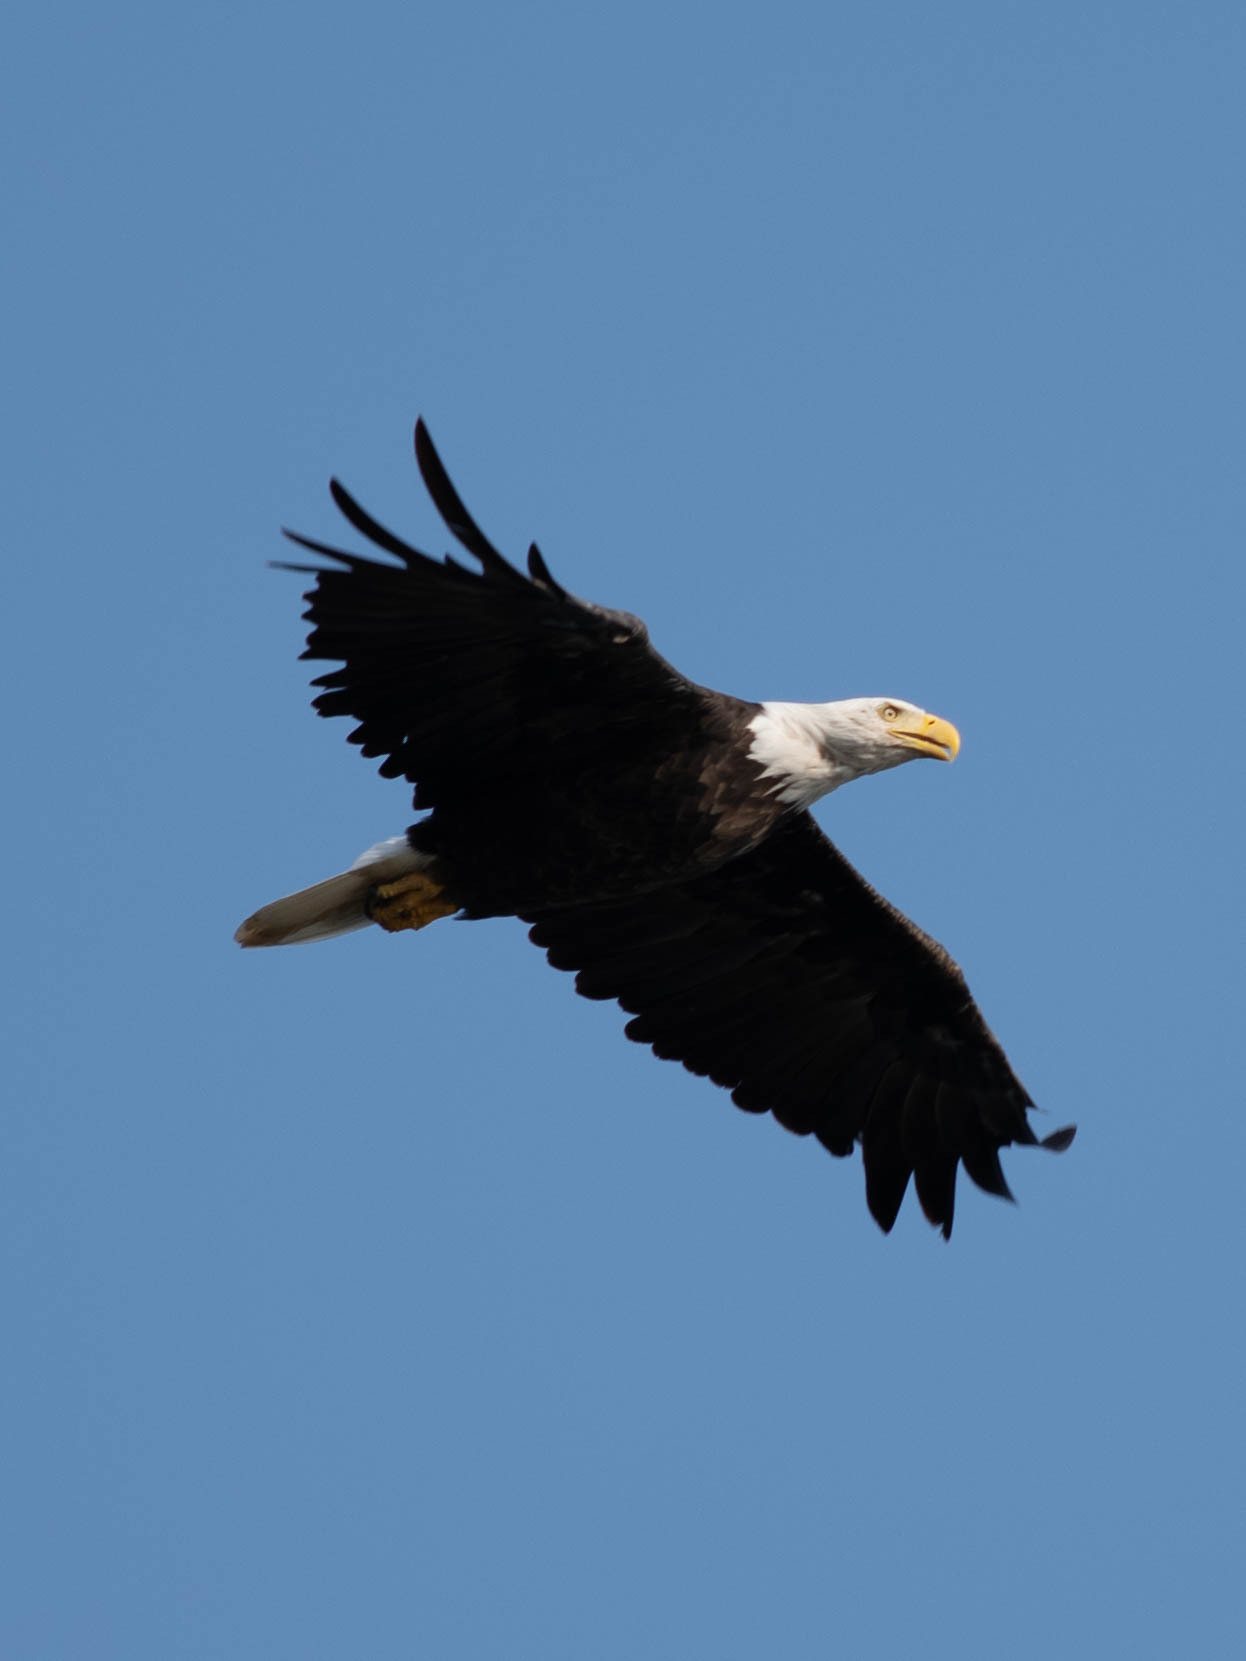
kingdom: Animalia
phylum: Chordata
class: Aves
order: Accipitriformes
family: Accipitridae
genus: Haliaeetus
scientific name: Haliaeetus leucocephalus
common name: Bald eagle
